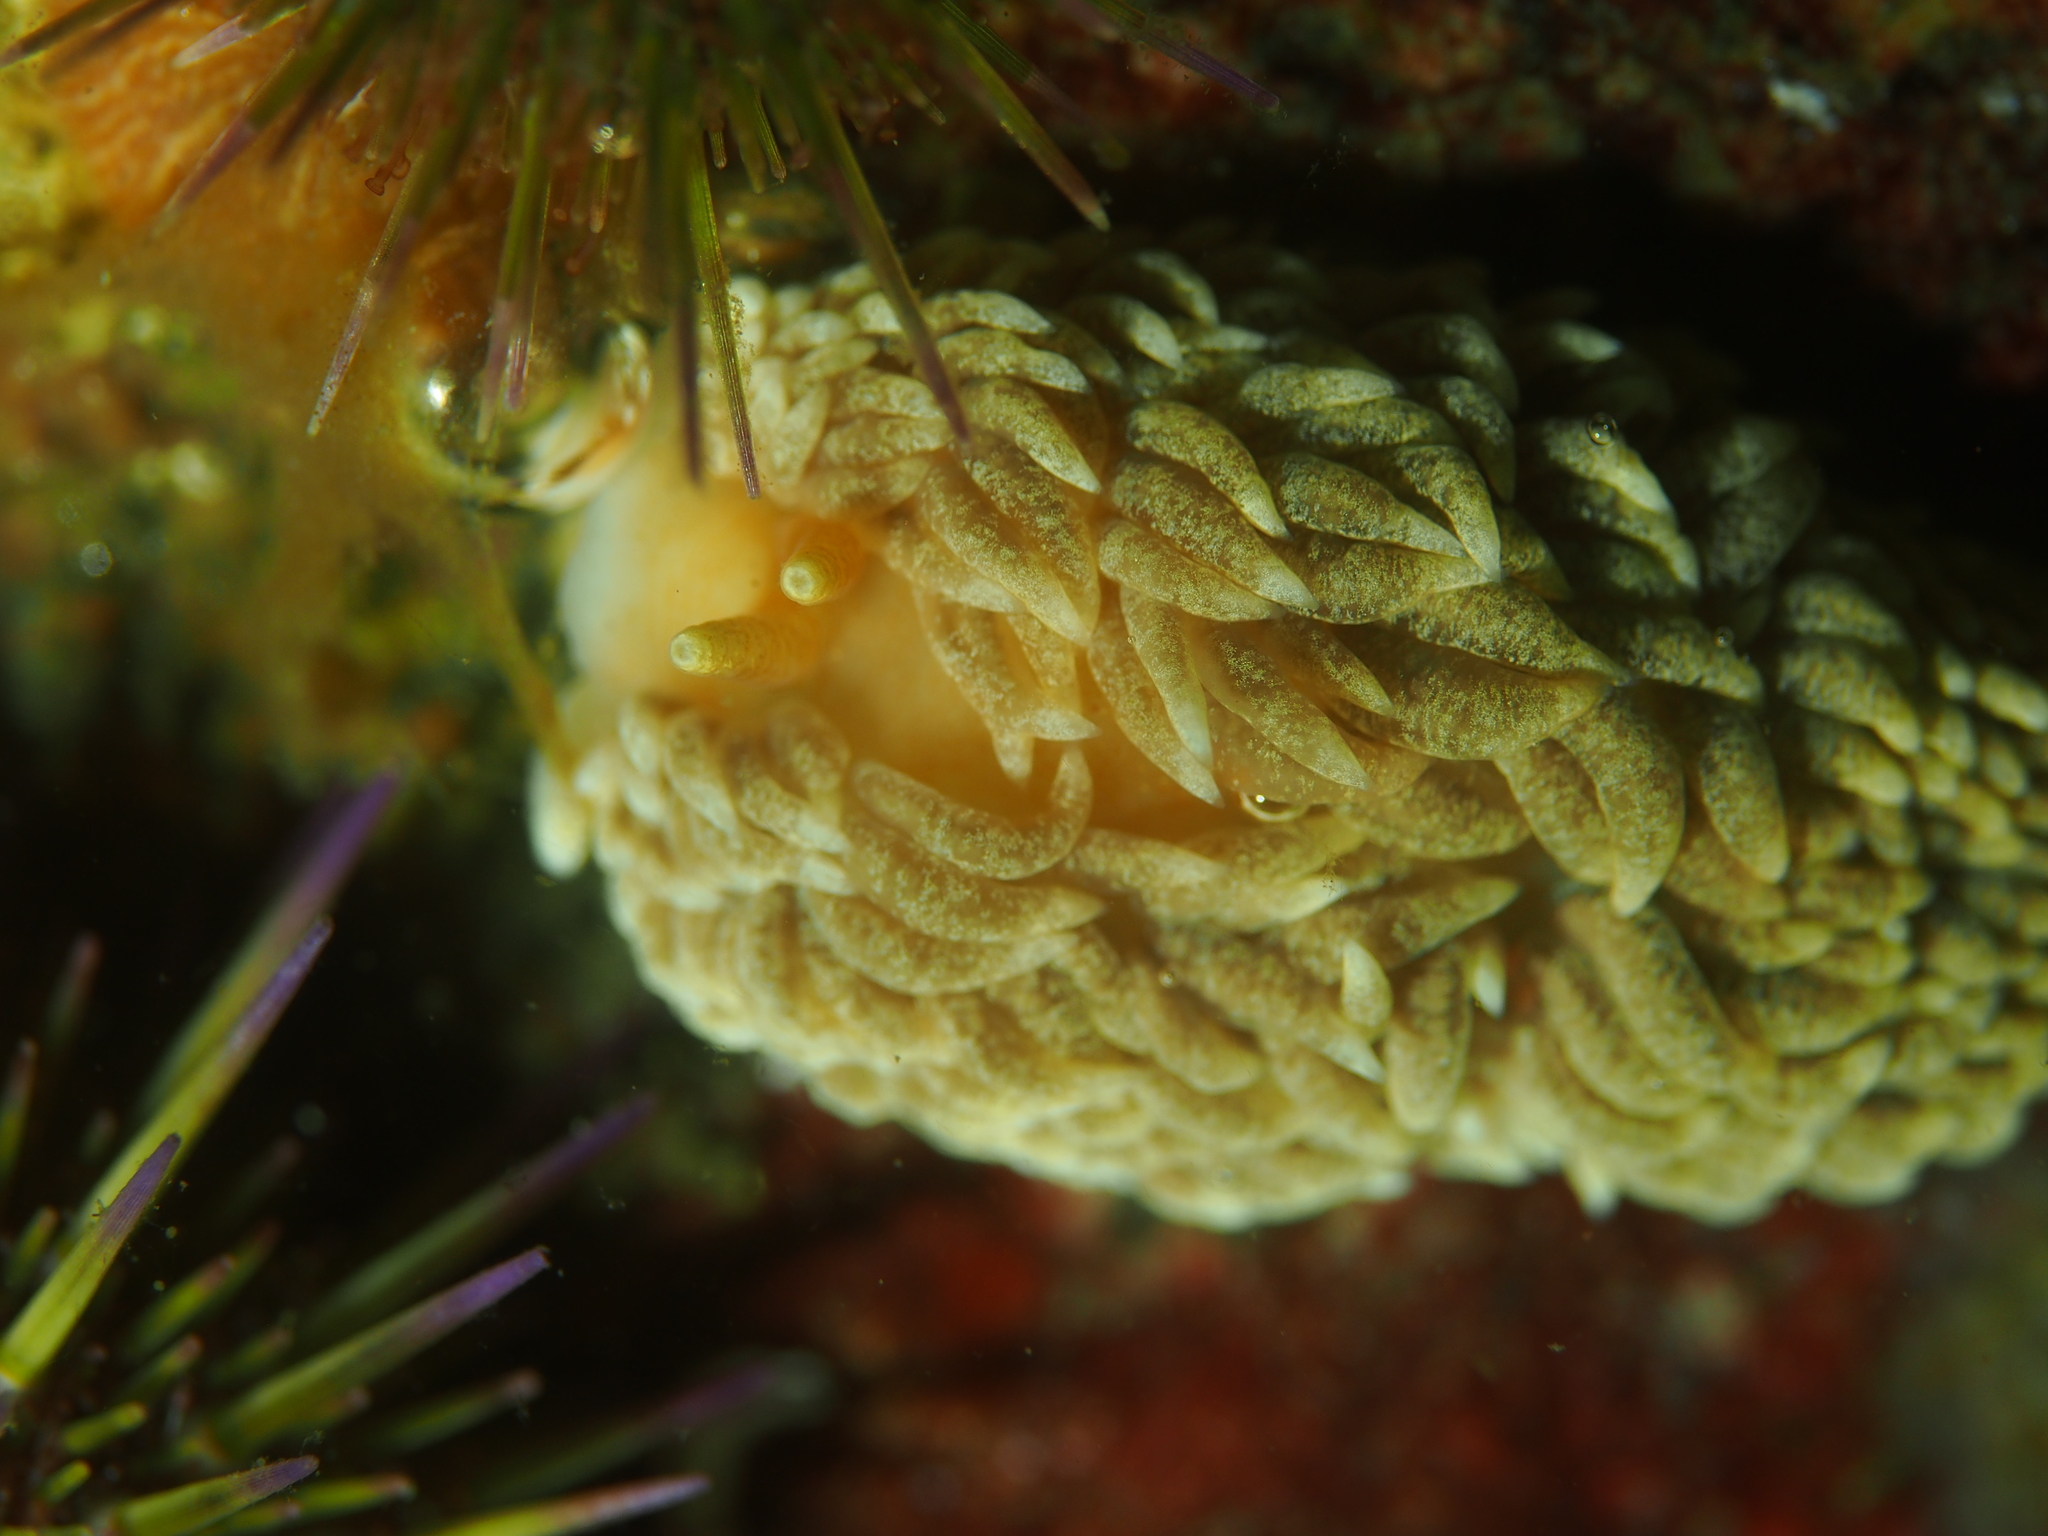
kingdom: Animalia
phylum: Mollusca
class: Gastropoda
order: Nudibranchia
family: Aeolidiidae
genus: Aeolidiella
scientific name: Aeolidiella glauca
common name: Orange-brown aeolid
